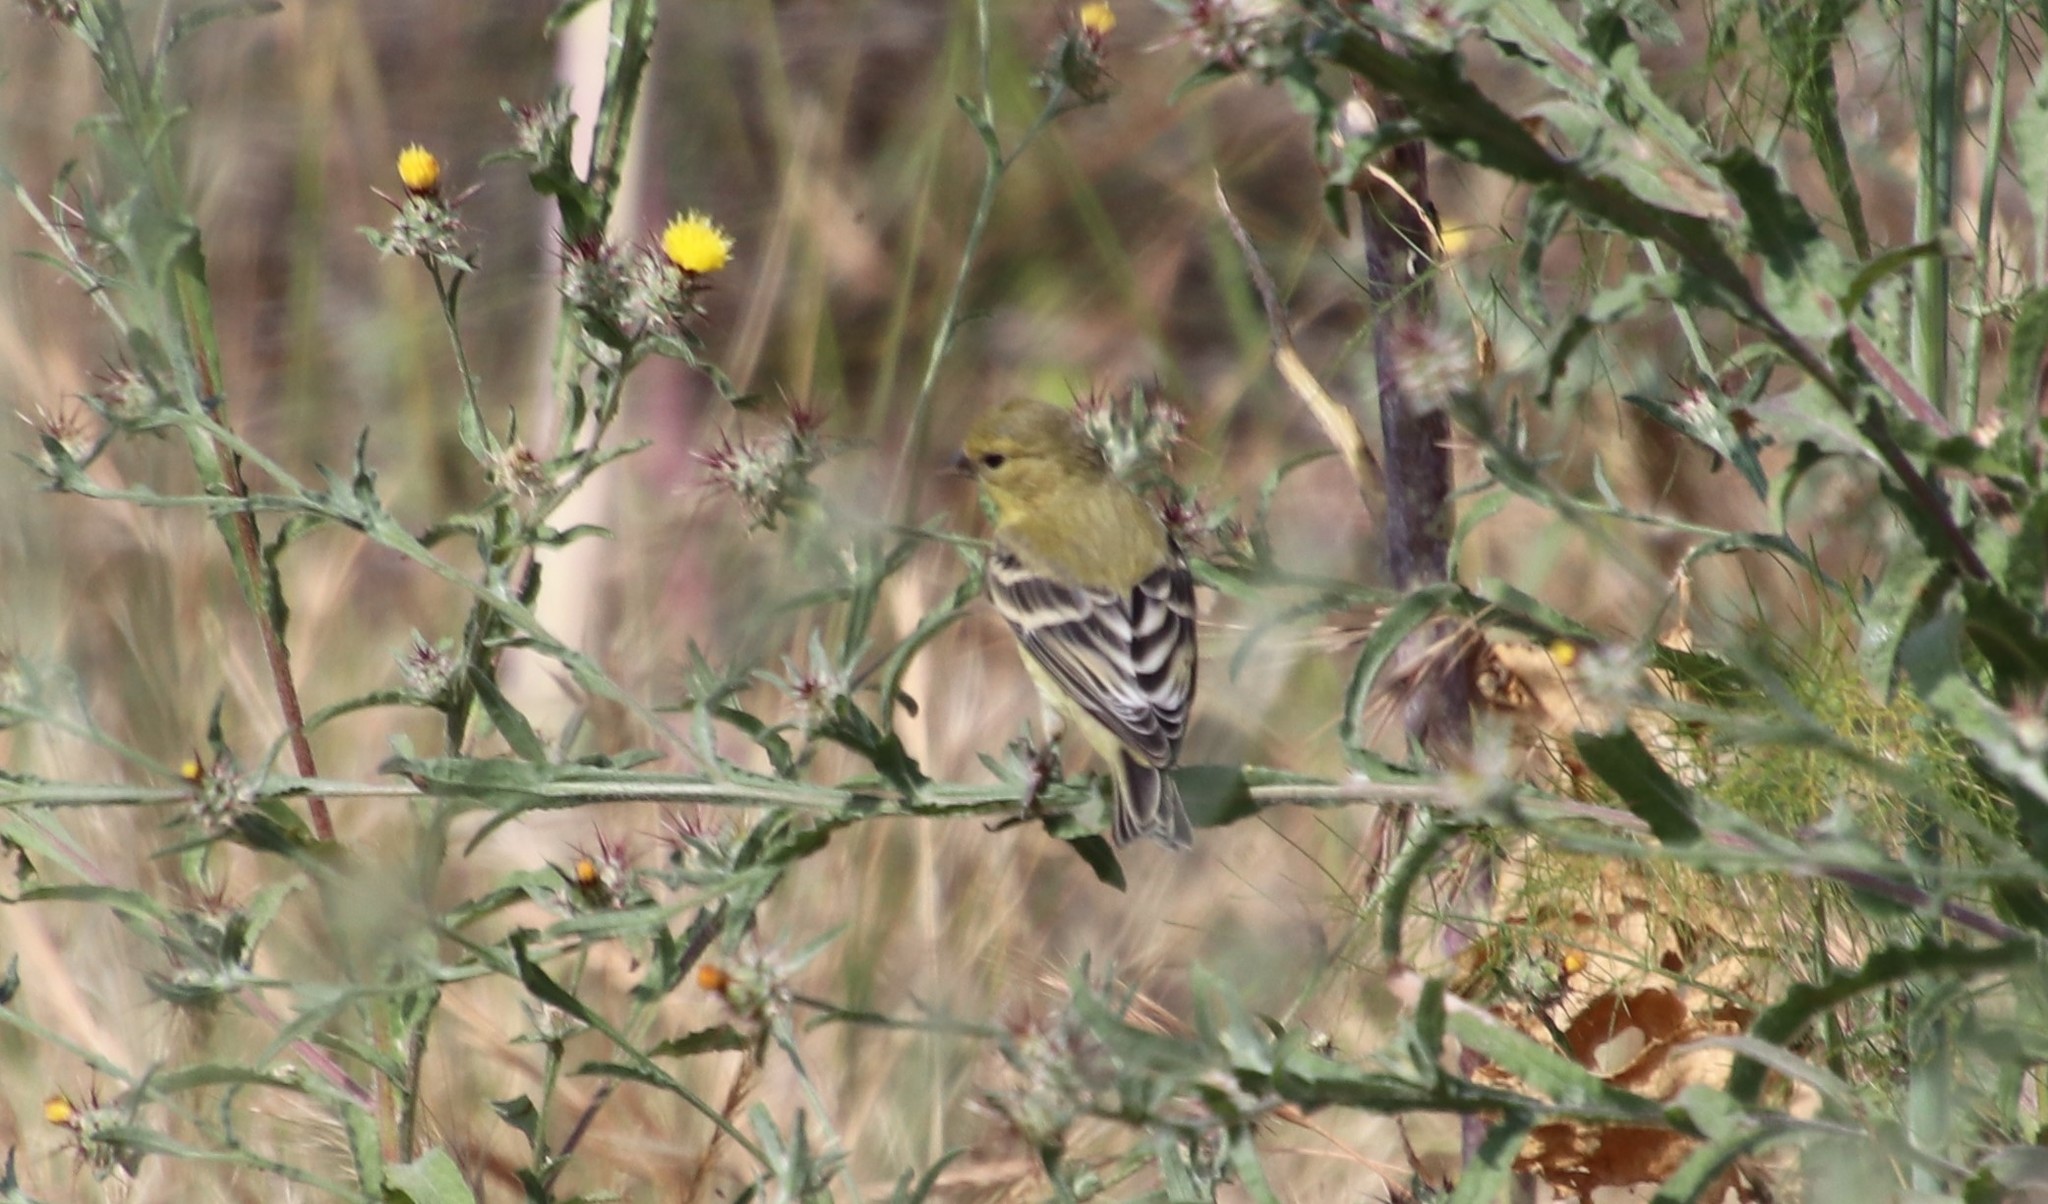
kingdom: Animalia
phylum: Chordata
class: Aves
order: Passeriformes
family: Fringillidae
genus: Spinus
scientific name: Spinus psaltria
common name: Lesser goldfinch
